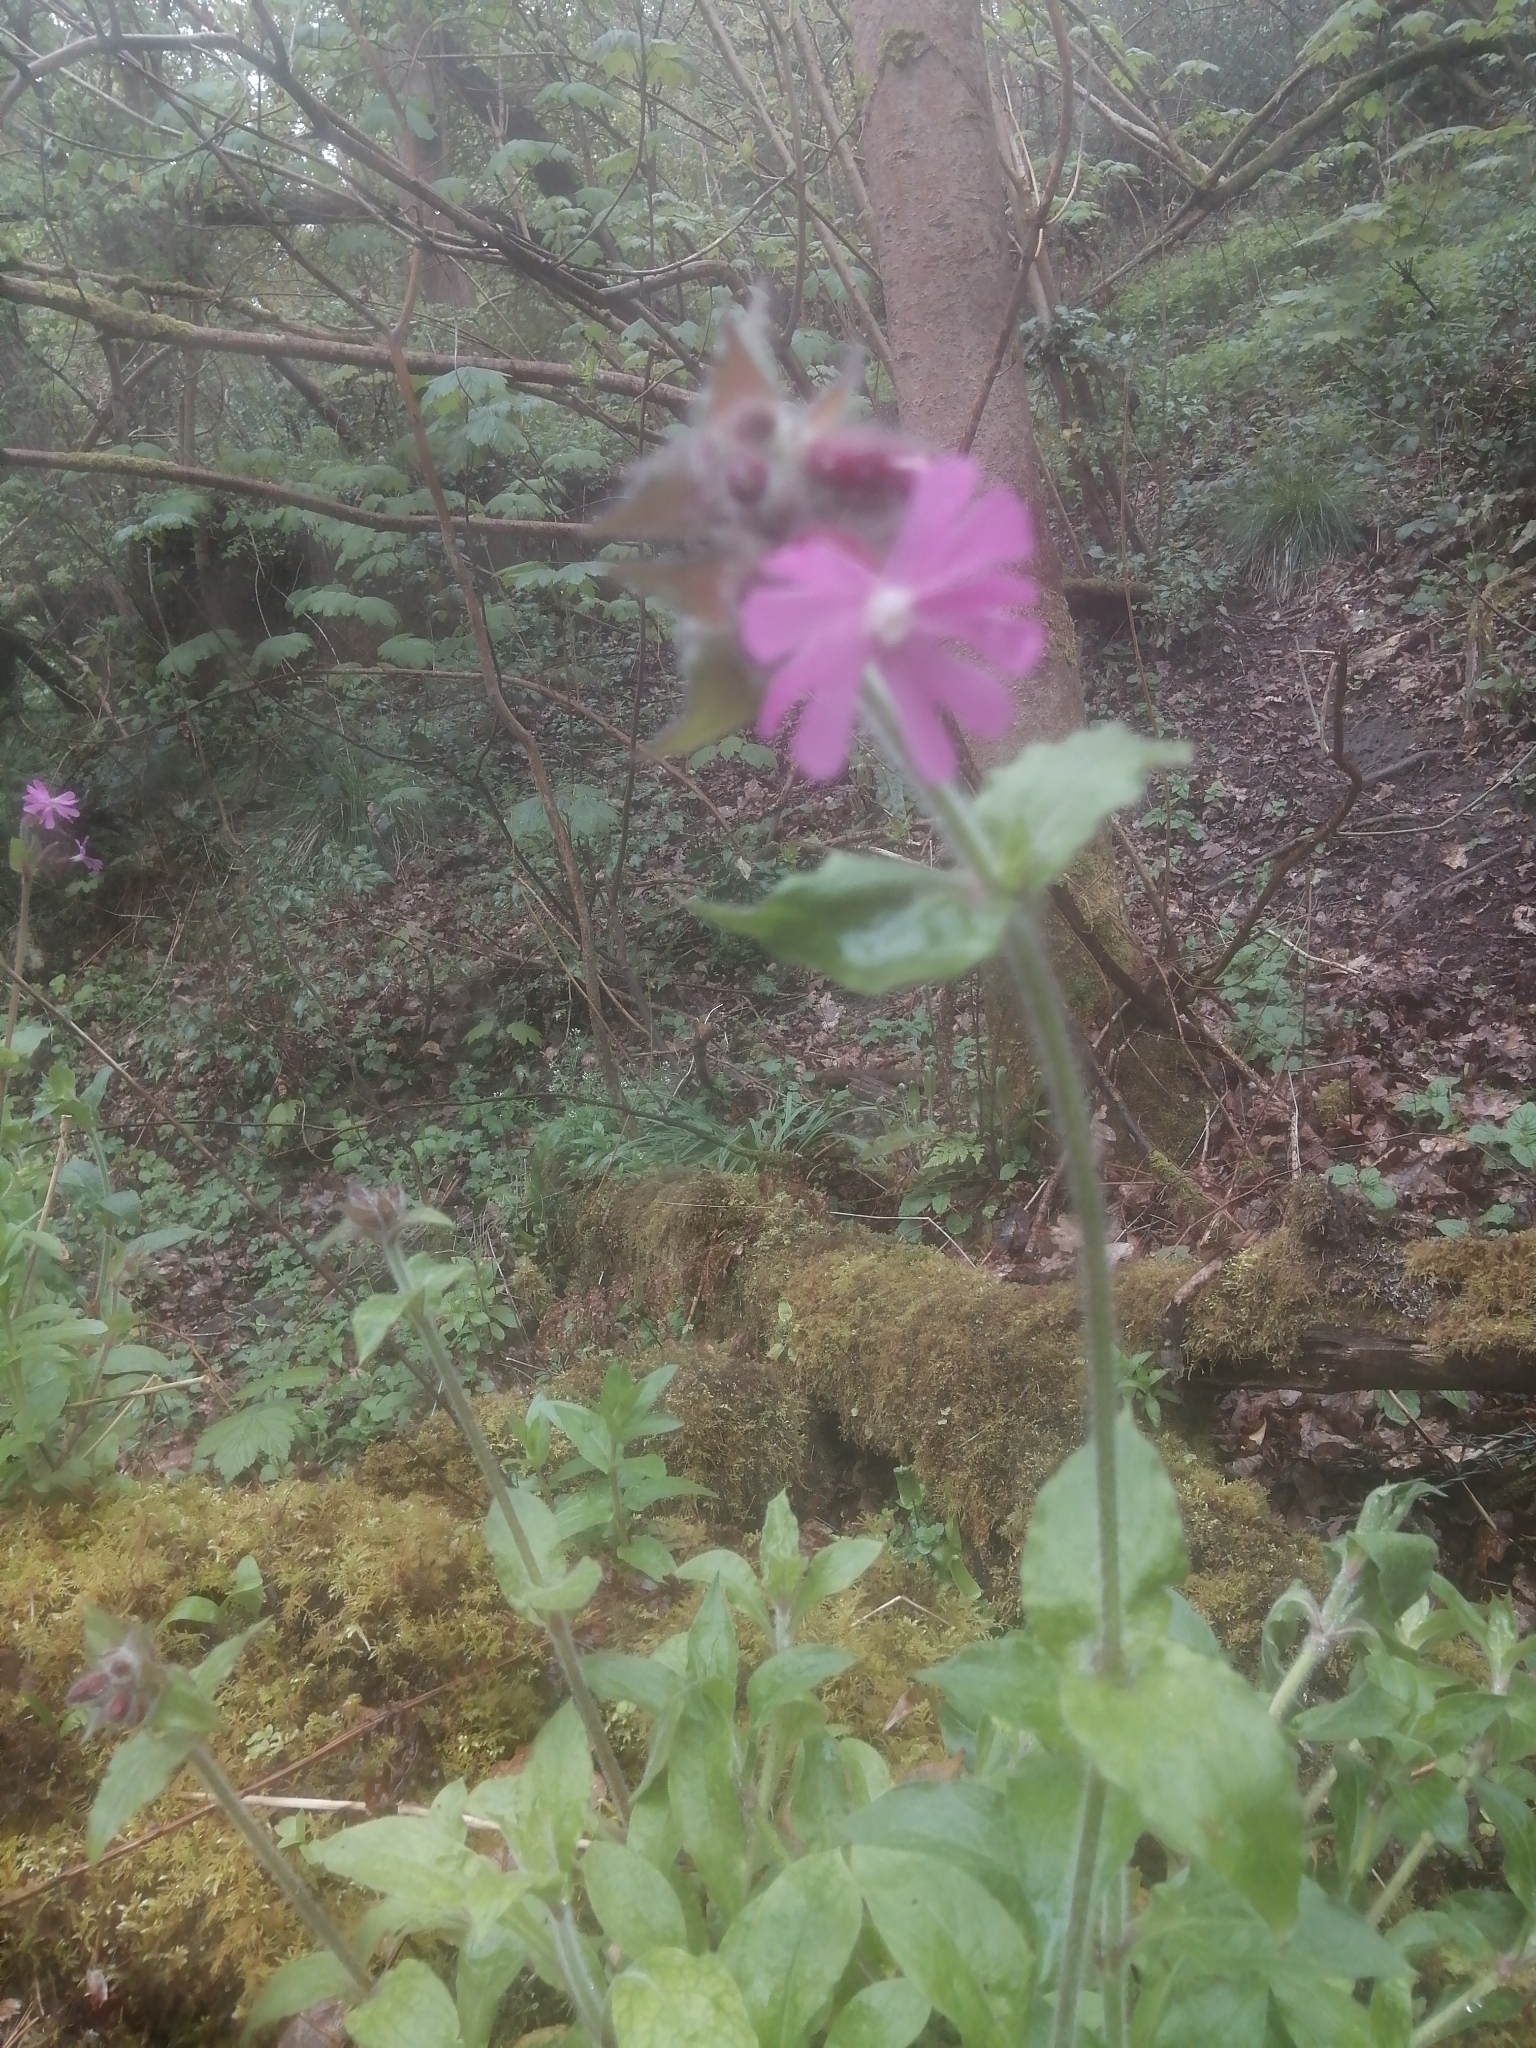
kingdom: Plantae
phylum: Tracheophyta
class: Magnoliopsida
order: Caryophyllales
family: Caryophyllaceae
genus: Silene
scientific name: Silene dioica
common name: Red campion
